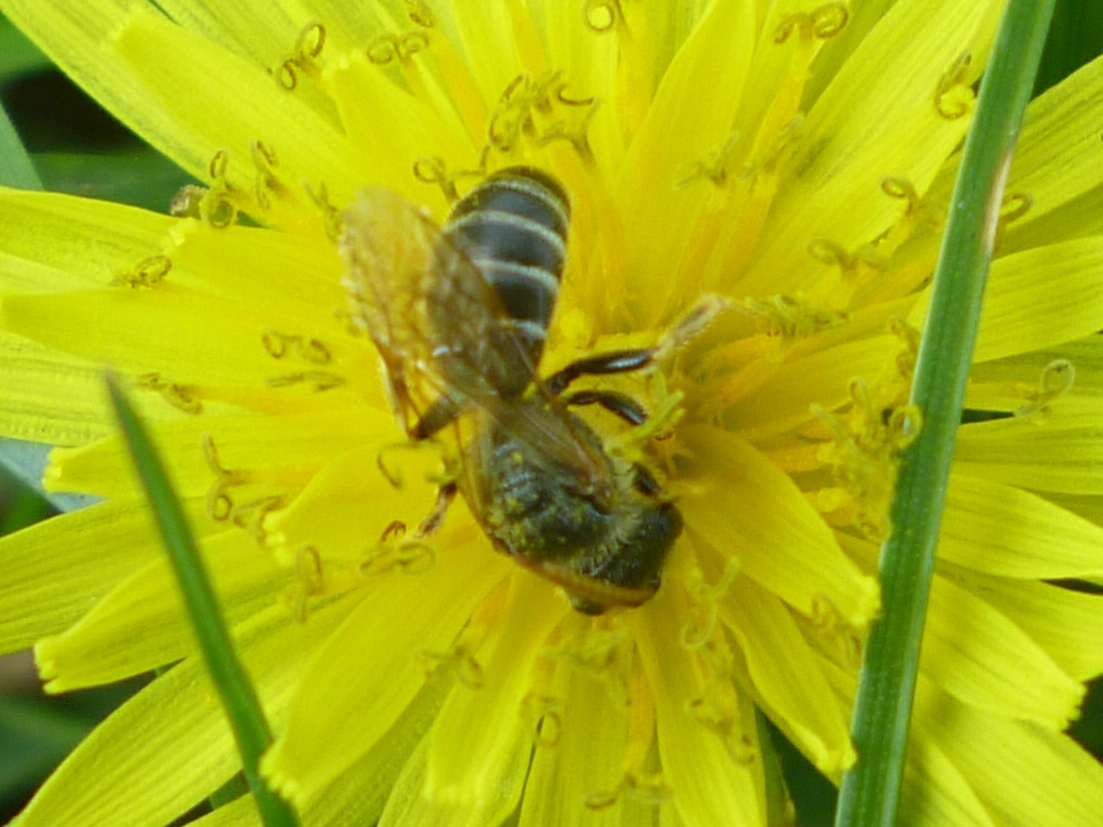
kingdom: Animalia
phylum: Arthropoda
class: Insecta
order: Hymenoptera
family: Halictidae
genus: Halictus
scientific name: Halictus ligatus
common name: Ligated furrow bee
